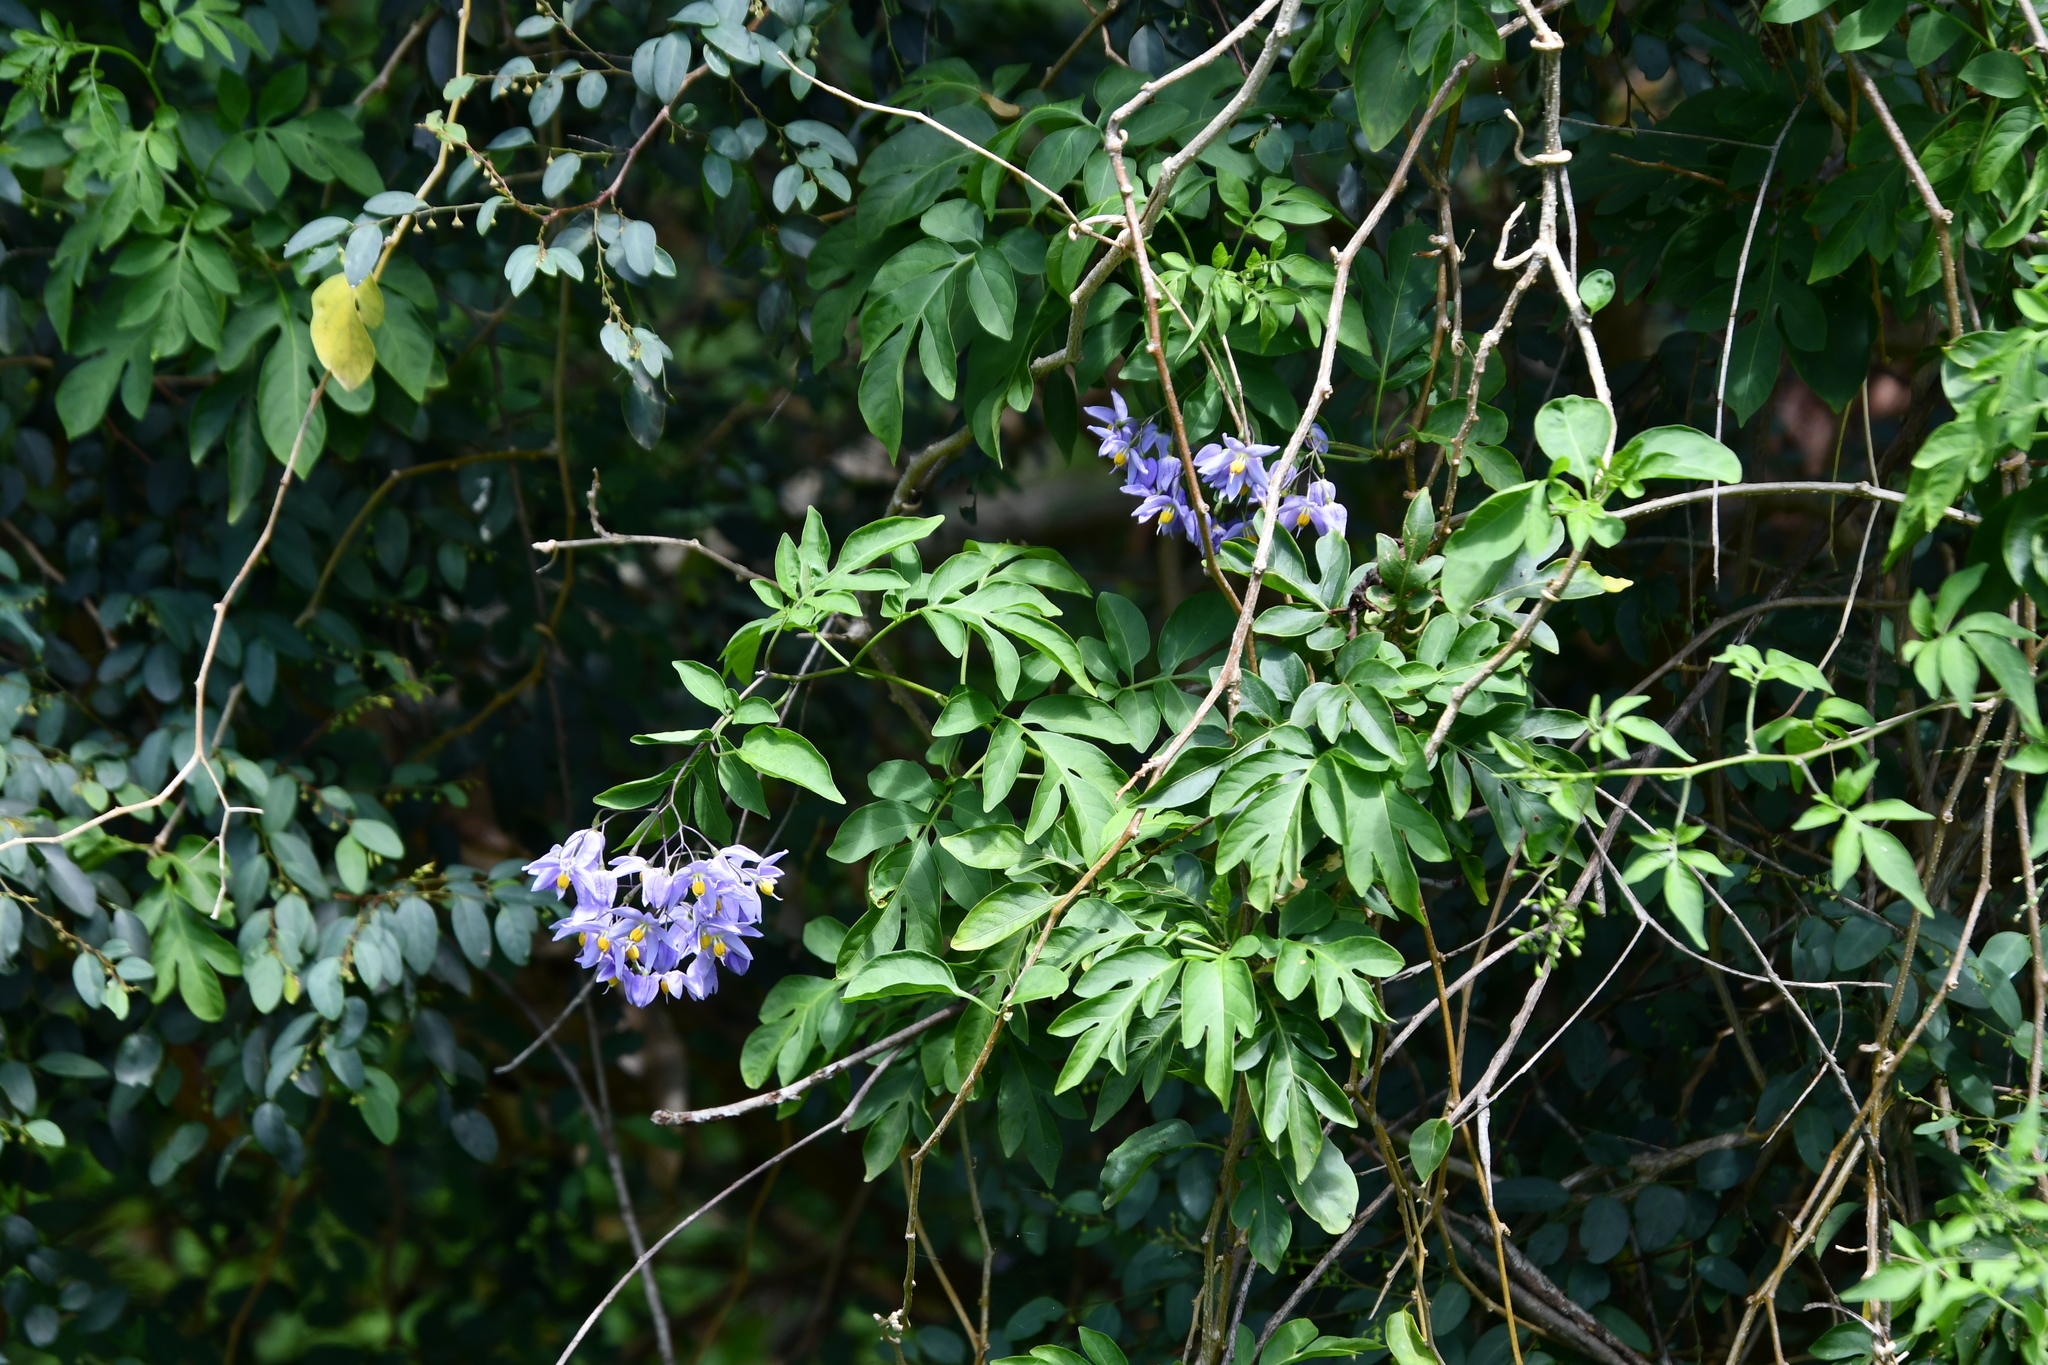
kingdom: Plantae
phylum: Tracheophyta
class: Magnoliopsida
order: Solanales
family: Solanaceae
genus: Solanum
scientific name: Solanum seaforthianum
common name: Brazilian nightshade
